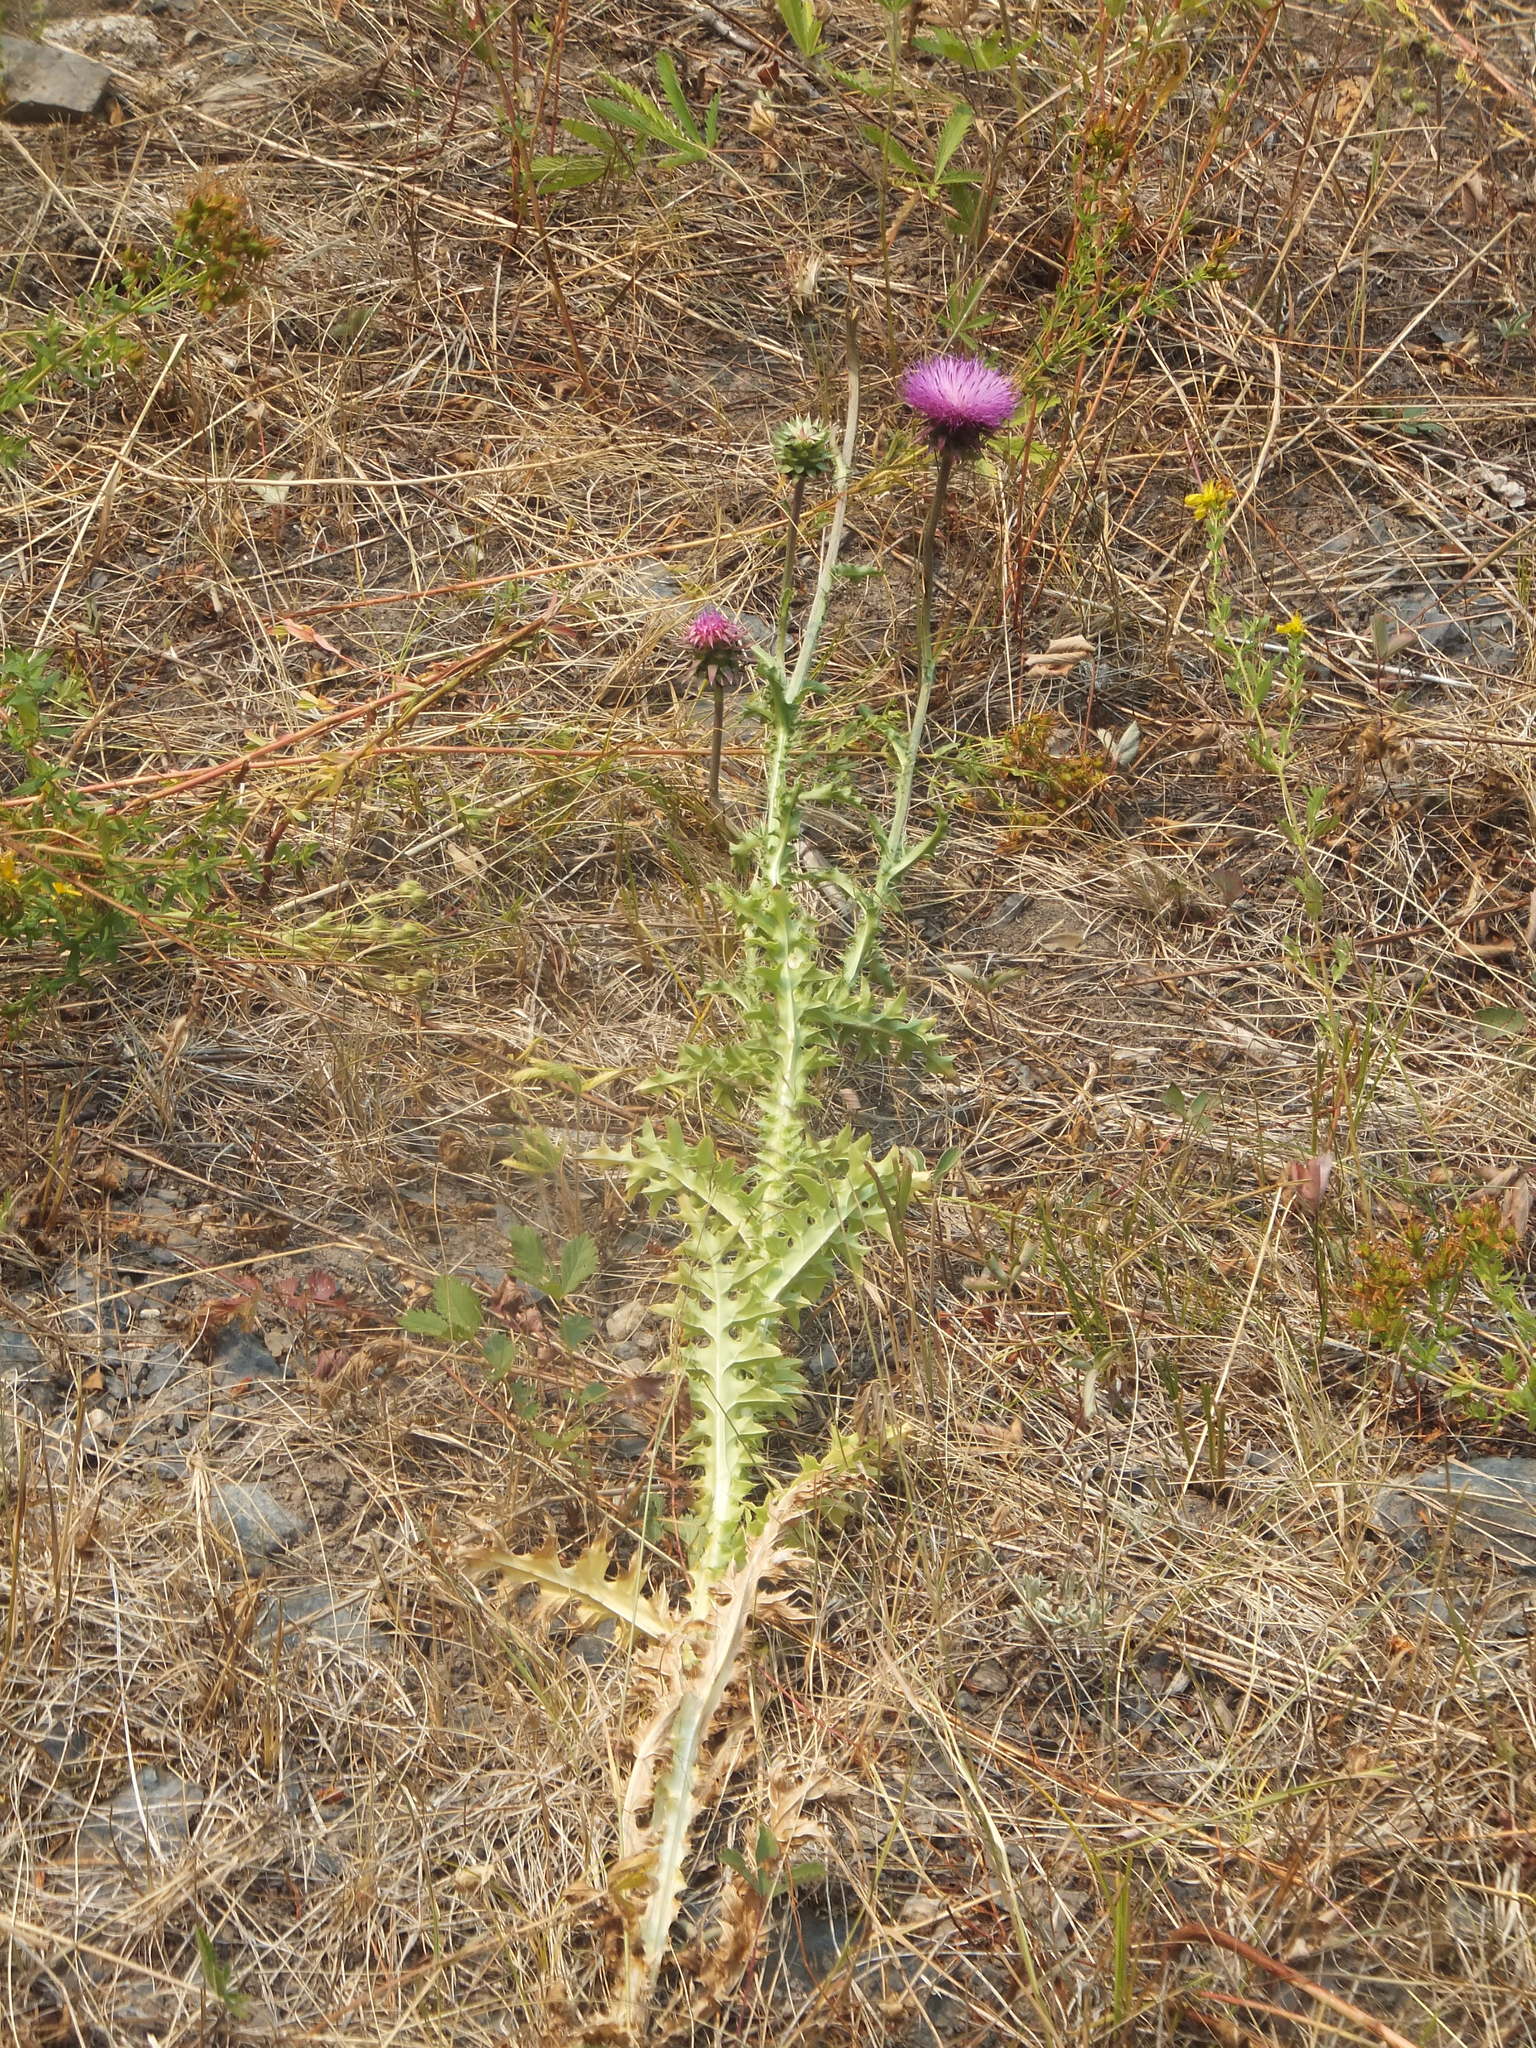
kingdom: Plantae
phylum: Tracheophyta
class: Magnoliopsida
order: Asterales
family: Asteraceae
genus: Carduus
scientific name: Carduus nutans
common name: Musk thistle
